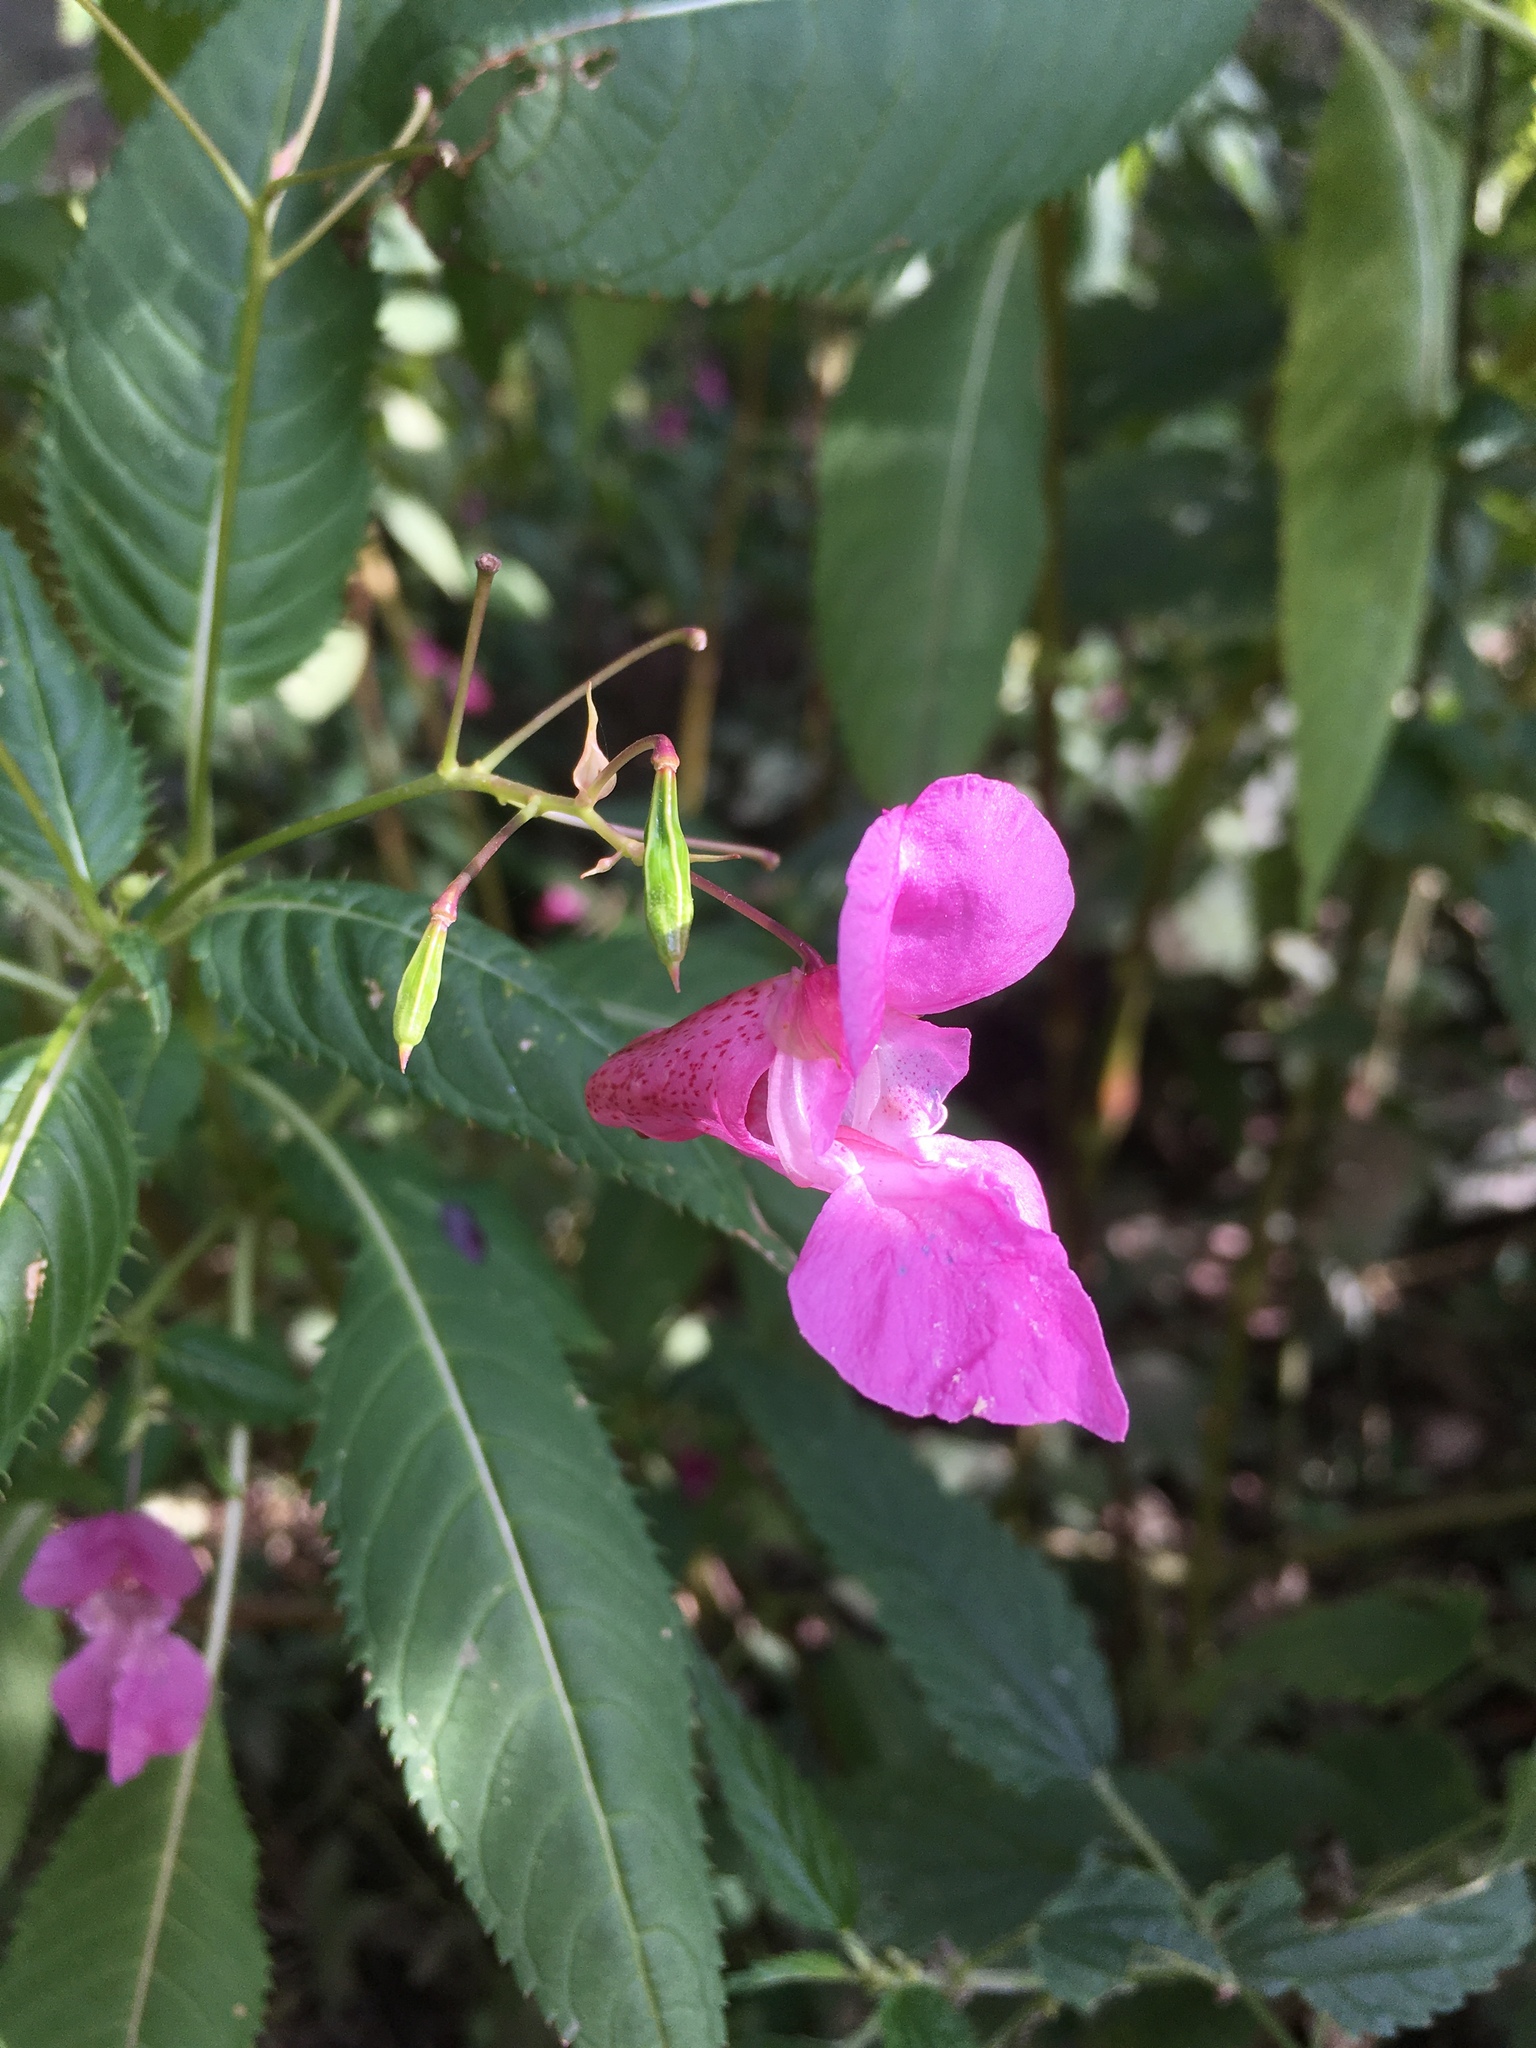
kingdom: Plantae
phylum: Tracheophyta
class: Magnoliopsida
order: Ericales
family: Balsaminaceae
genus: Impatiens
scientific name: Impatiens glandulifera
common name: Himalayan balsam
